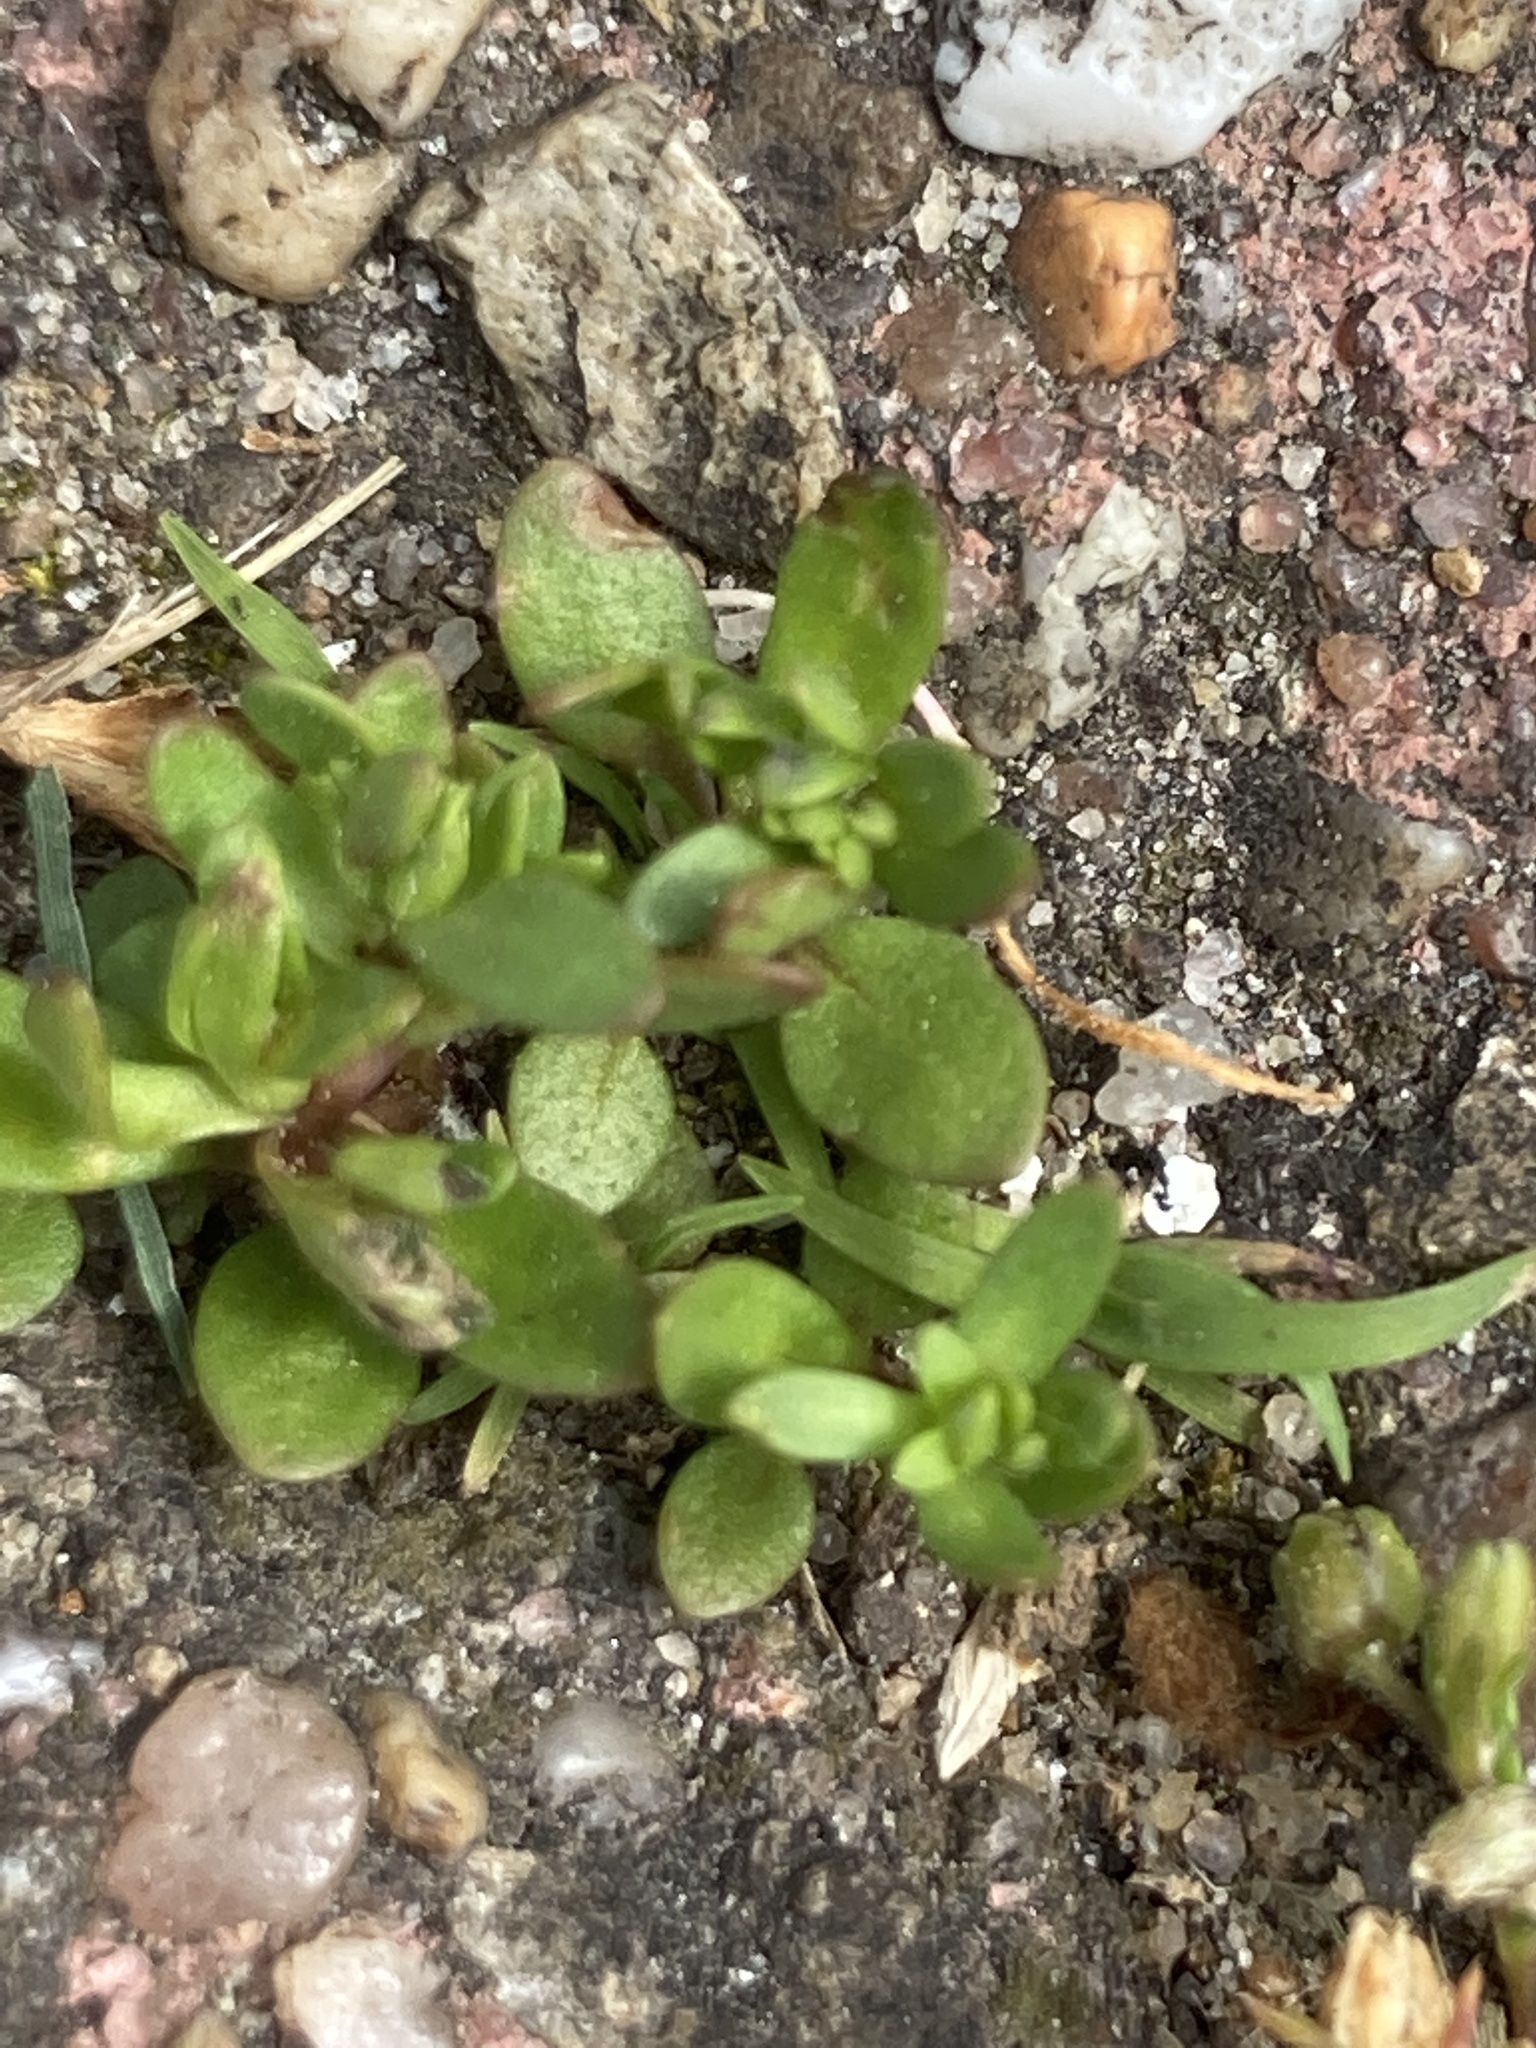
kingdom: Plantae
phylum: Tracheophyta
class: Magnoliopsida
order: Lamiales
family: Plantaginaceae
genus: Veronica
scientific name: Veronica peregrina
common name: Neckweed
